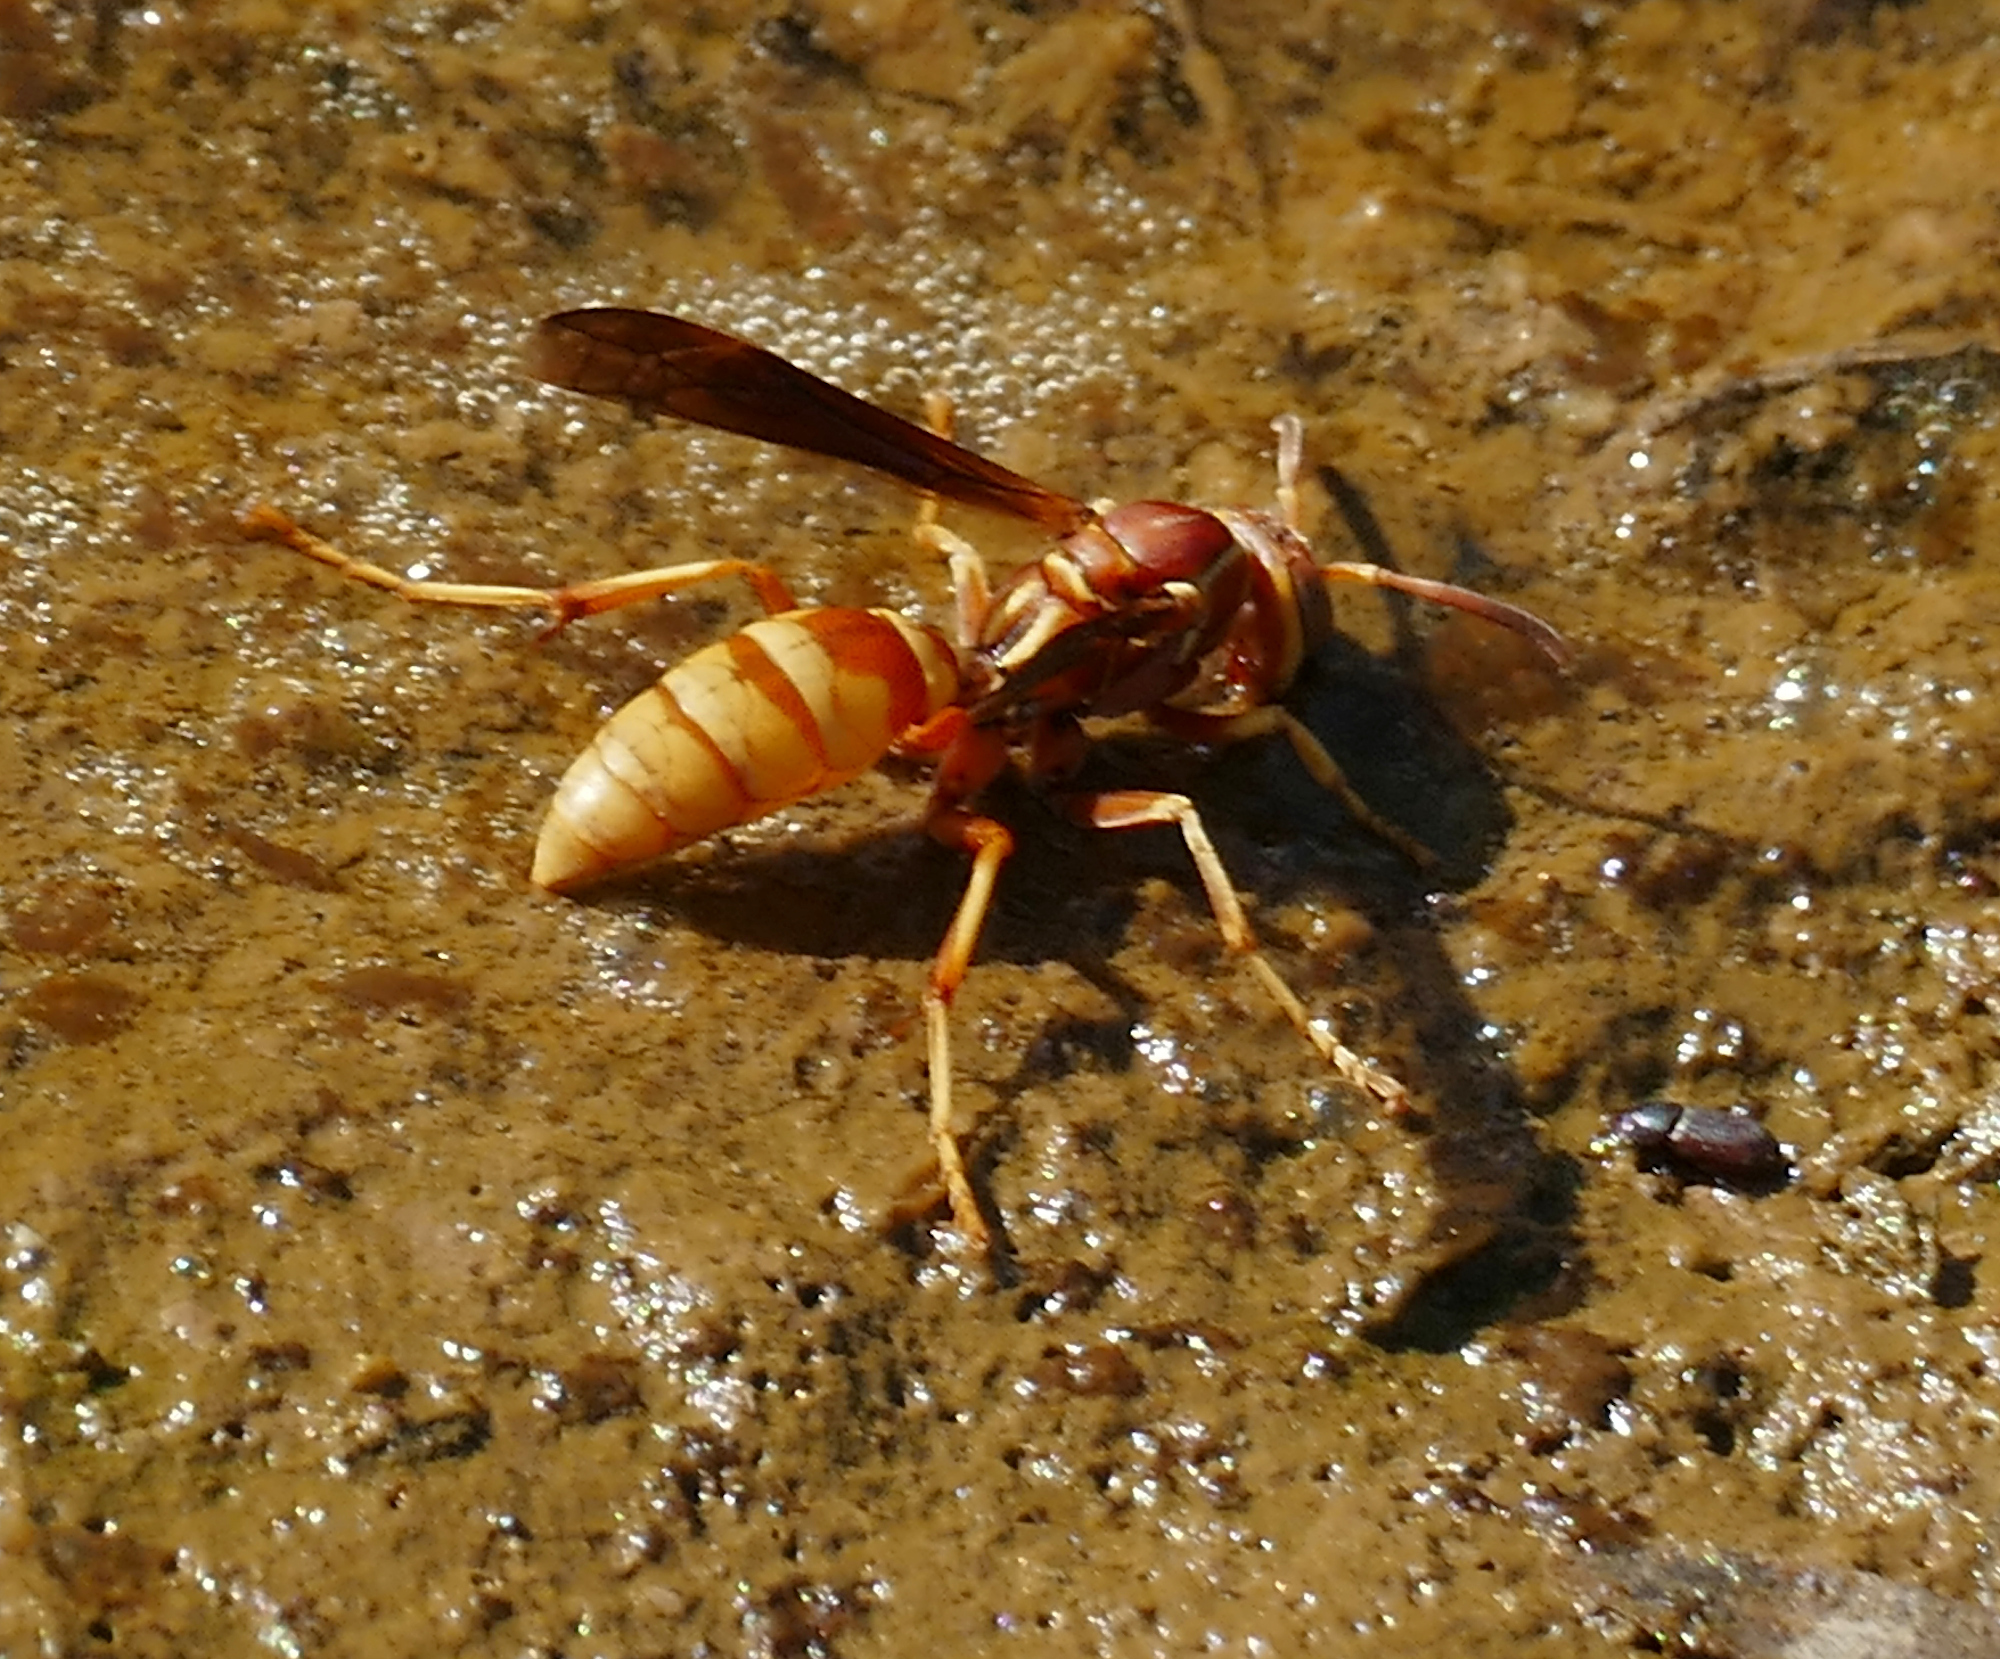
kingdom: Animalia
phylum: Arthropoda
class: Insecta
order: Hymenoptera
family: Eumenidae
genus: Polistes
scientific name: Polistes dorsalis
